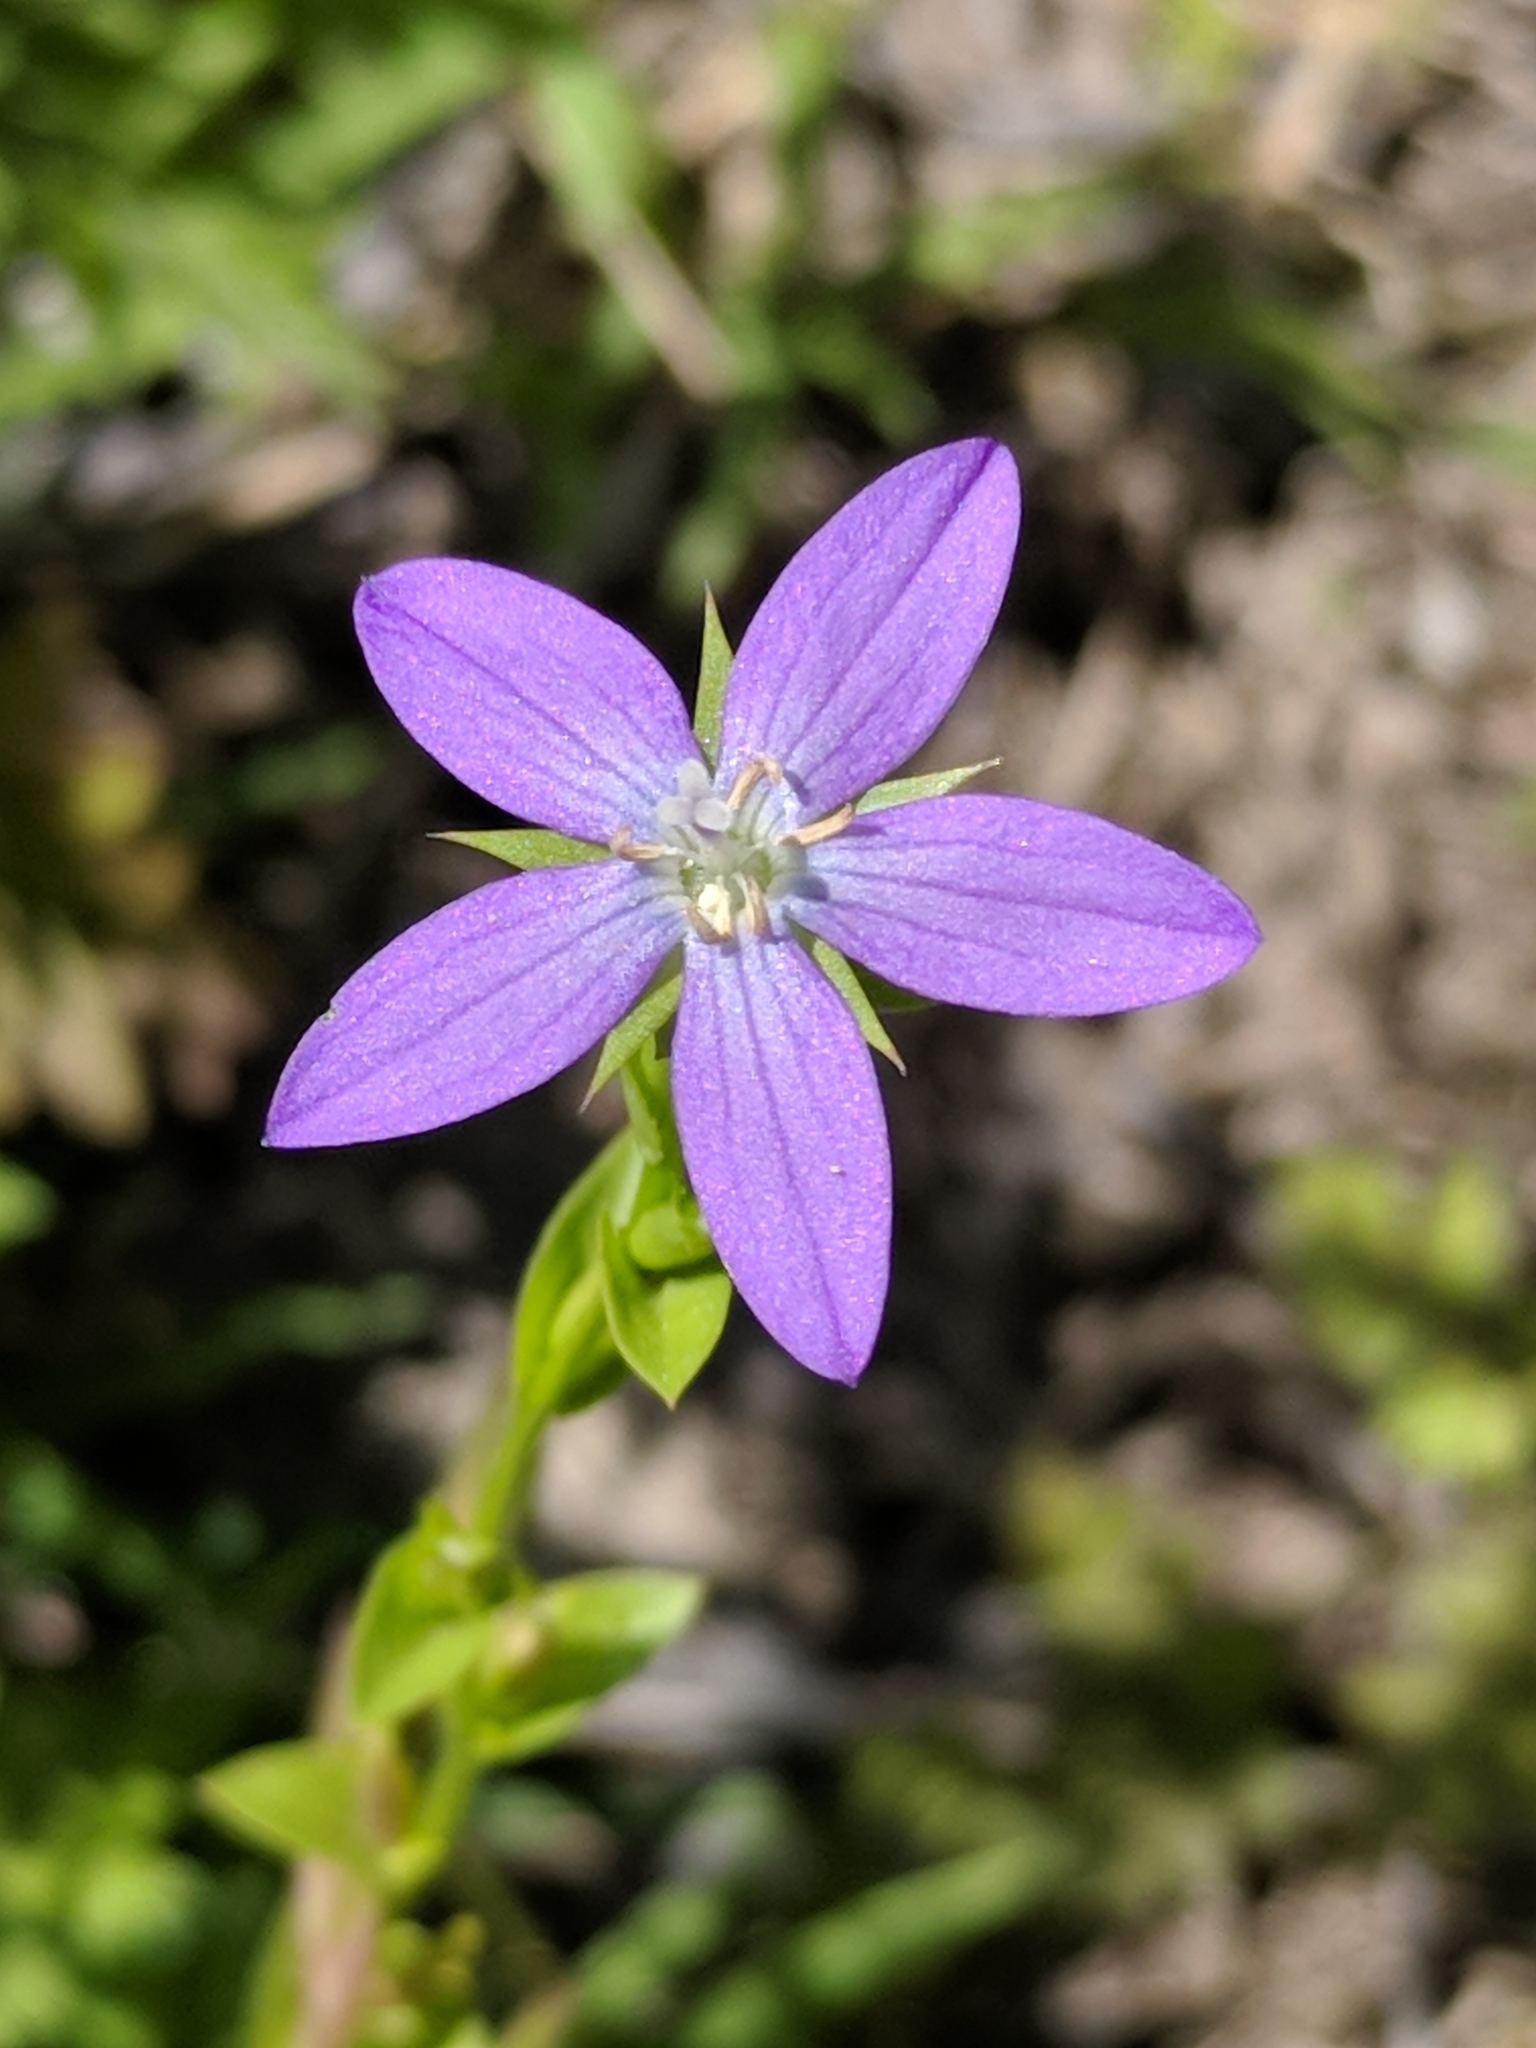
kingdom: Plantae
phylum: Tracheophyta
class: Magnoliopsida
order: Asterales
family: Campanulaceae
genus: Triodanis
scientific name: Triodanis biflora
